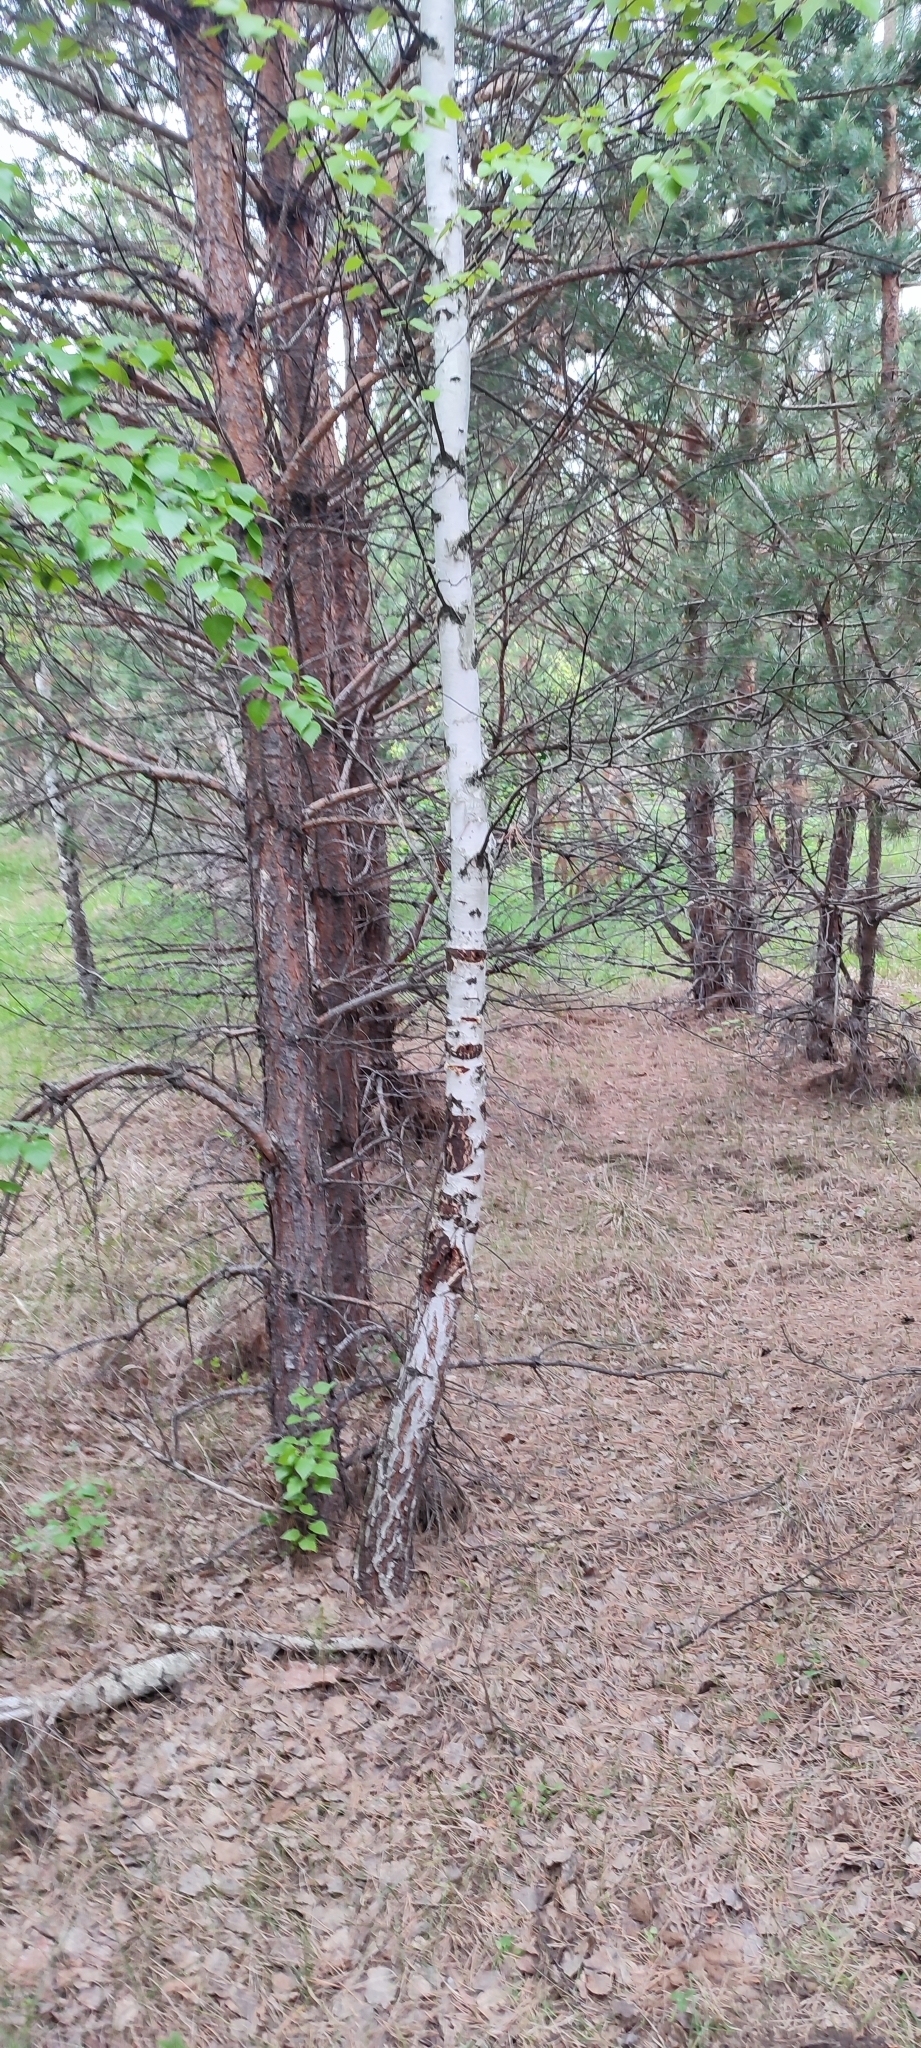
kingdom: Plantae
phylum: Tracheophyta
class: Magnoliopsida
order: Fagales
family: Betulaceae
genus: Betula
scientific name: Betula pendula
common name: Silver birch
